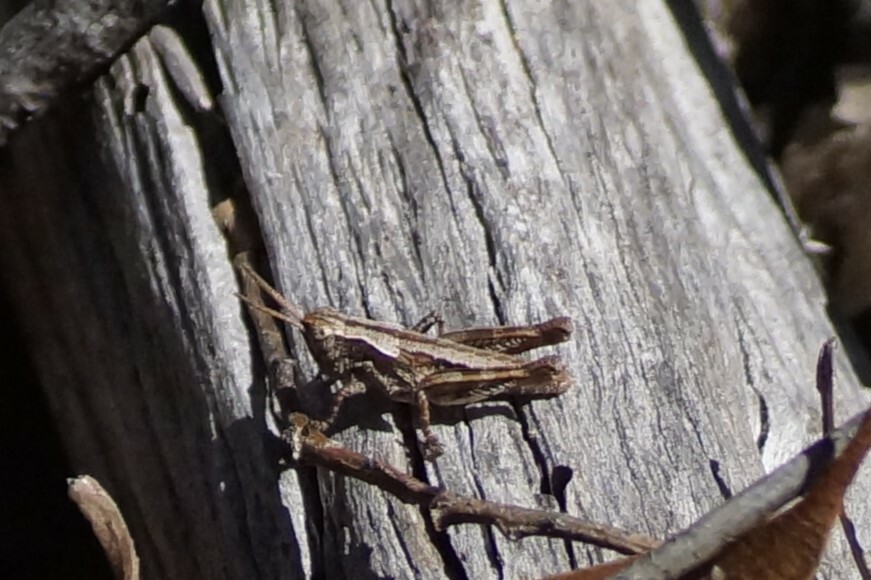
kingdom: Animalia
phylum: Arthropoda
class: Insecta
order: Orthoptera
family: Acrididae
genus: Tasmaniacris
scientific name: Tasmaniacris tasmaniensis
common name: Tasmanian grasshopper
